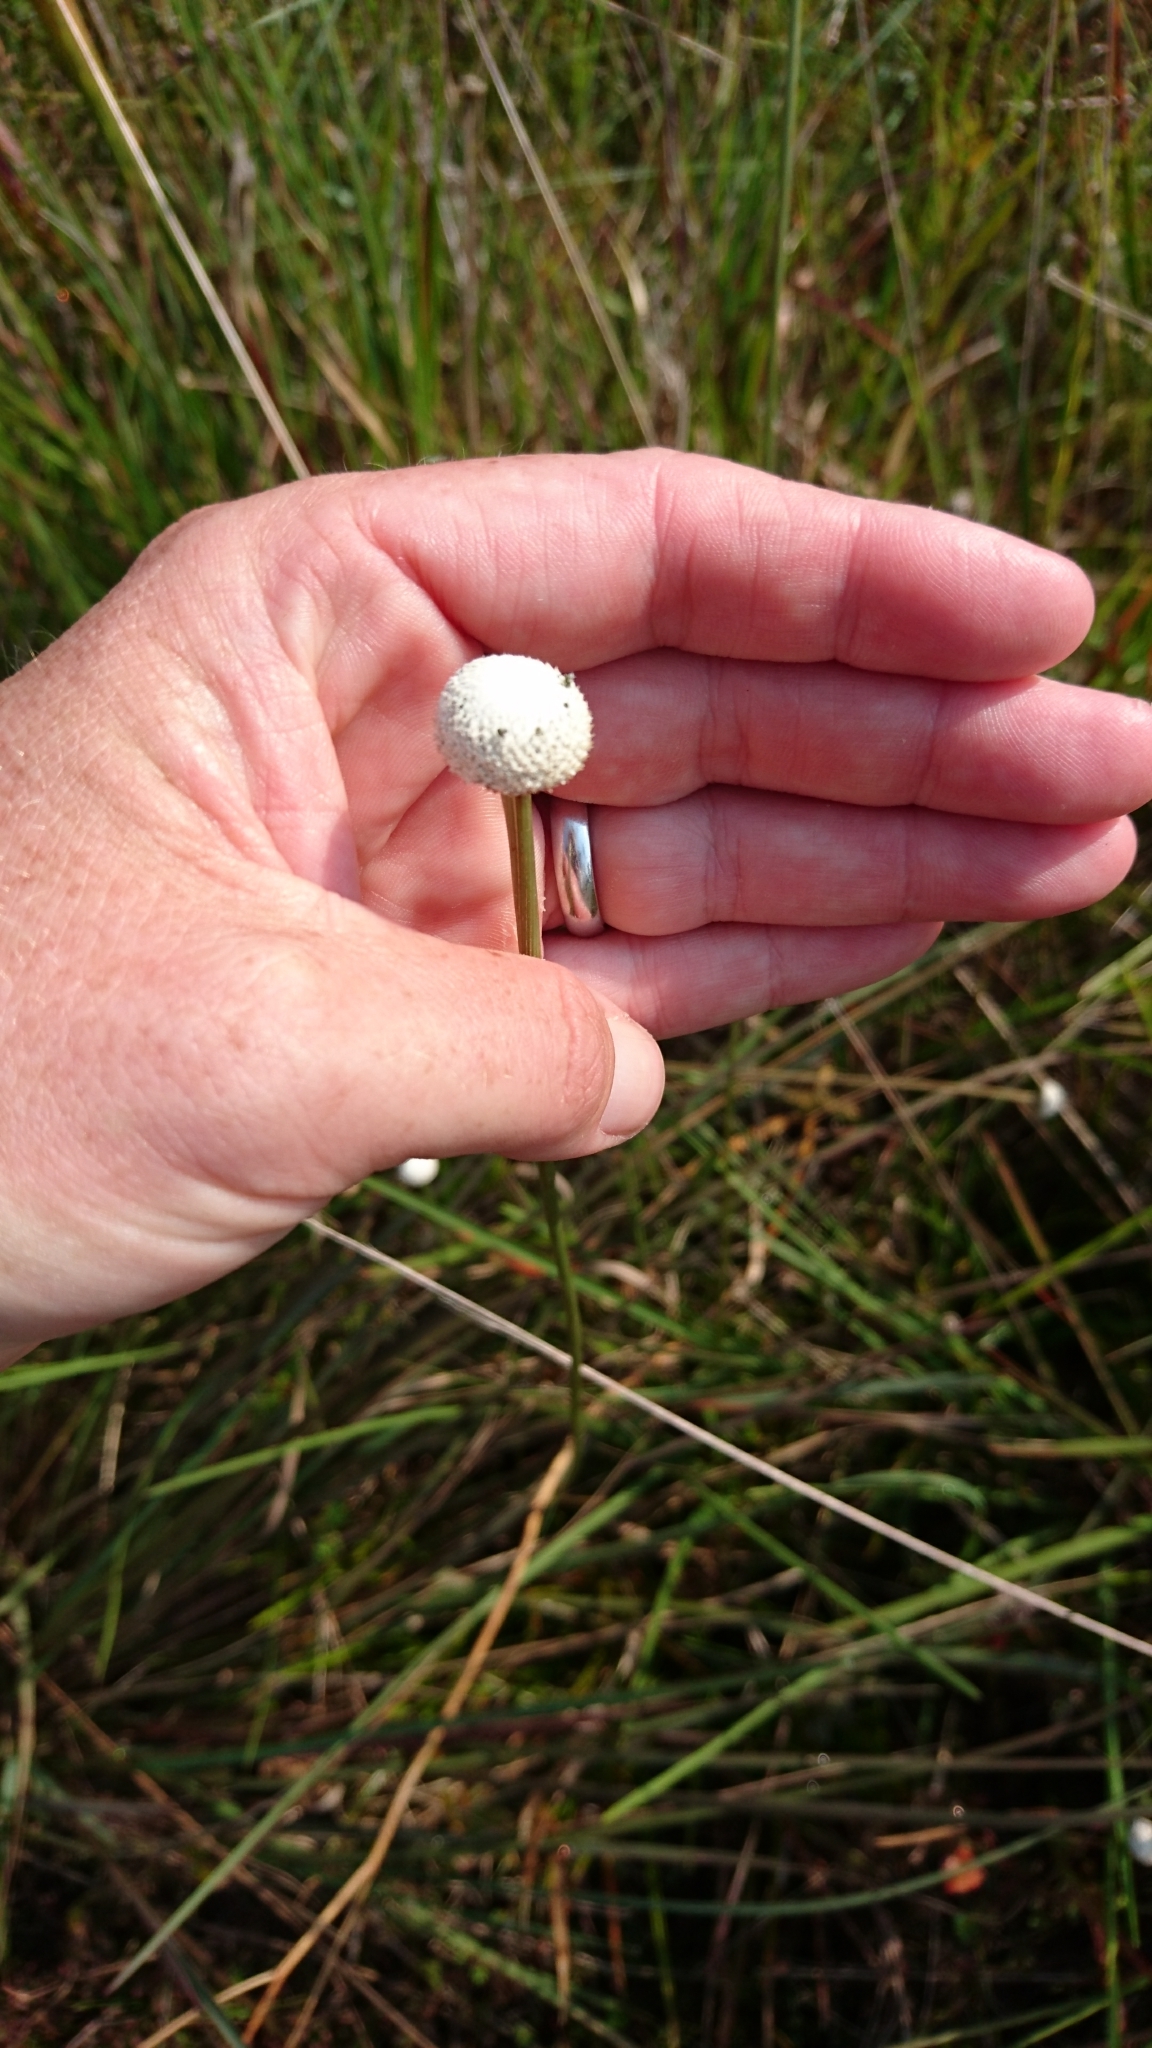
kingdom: Plantae
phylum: Tracheophyta
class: Liliopsida
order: Poales
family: Eriocaulaceae
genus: Eriocaulon
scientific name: Eriocaulon decangulare
